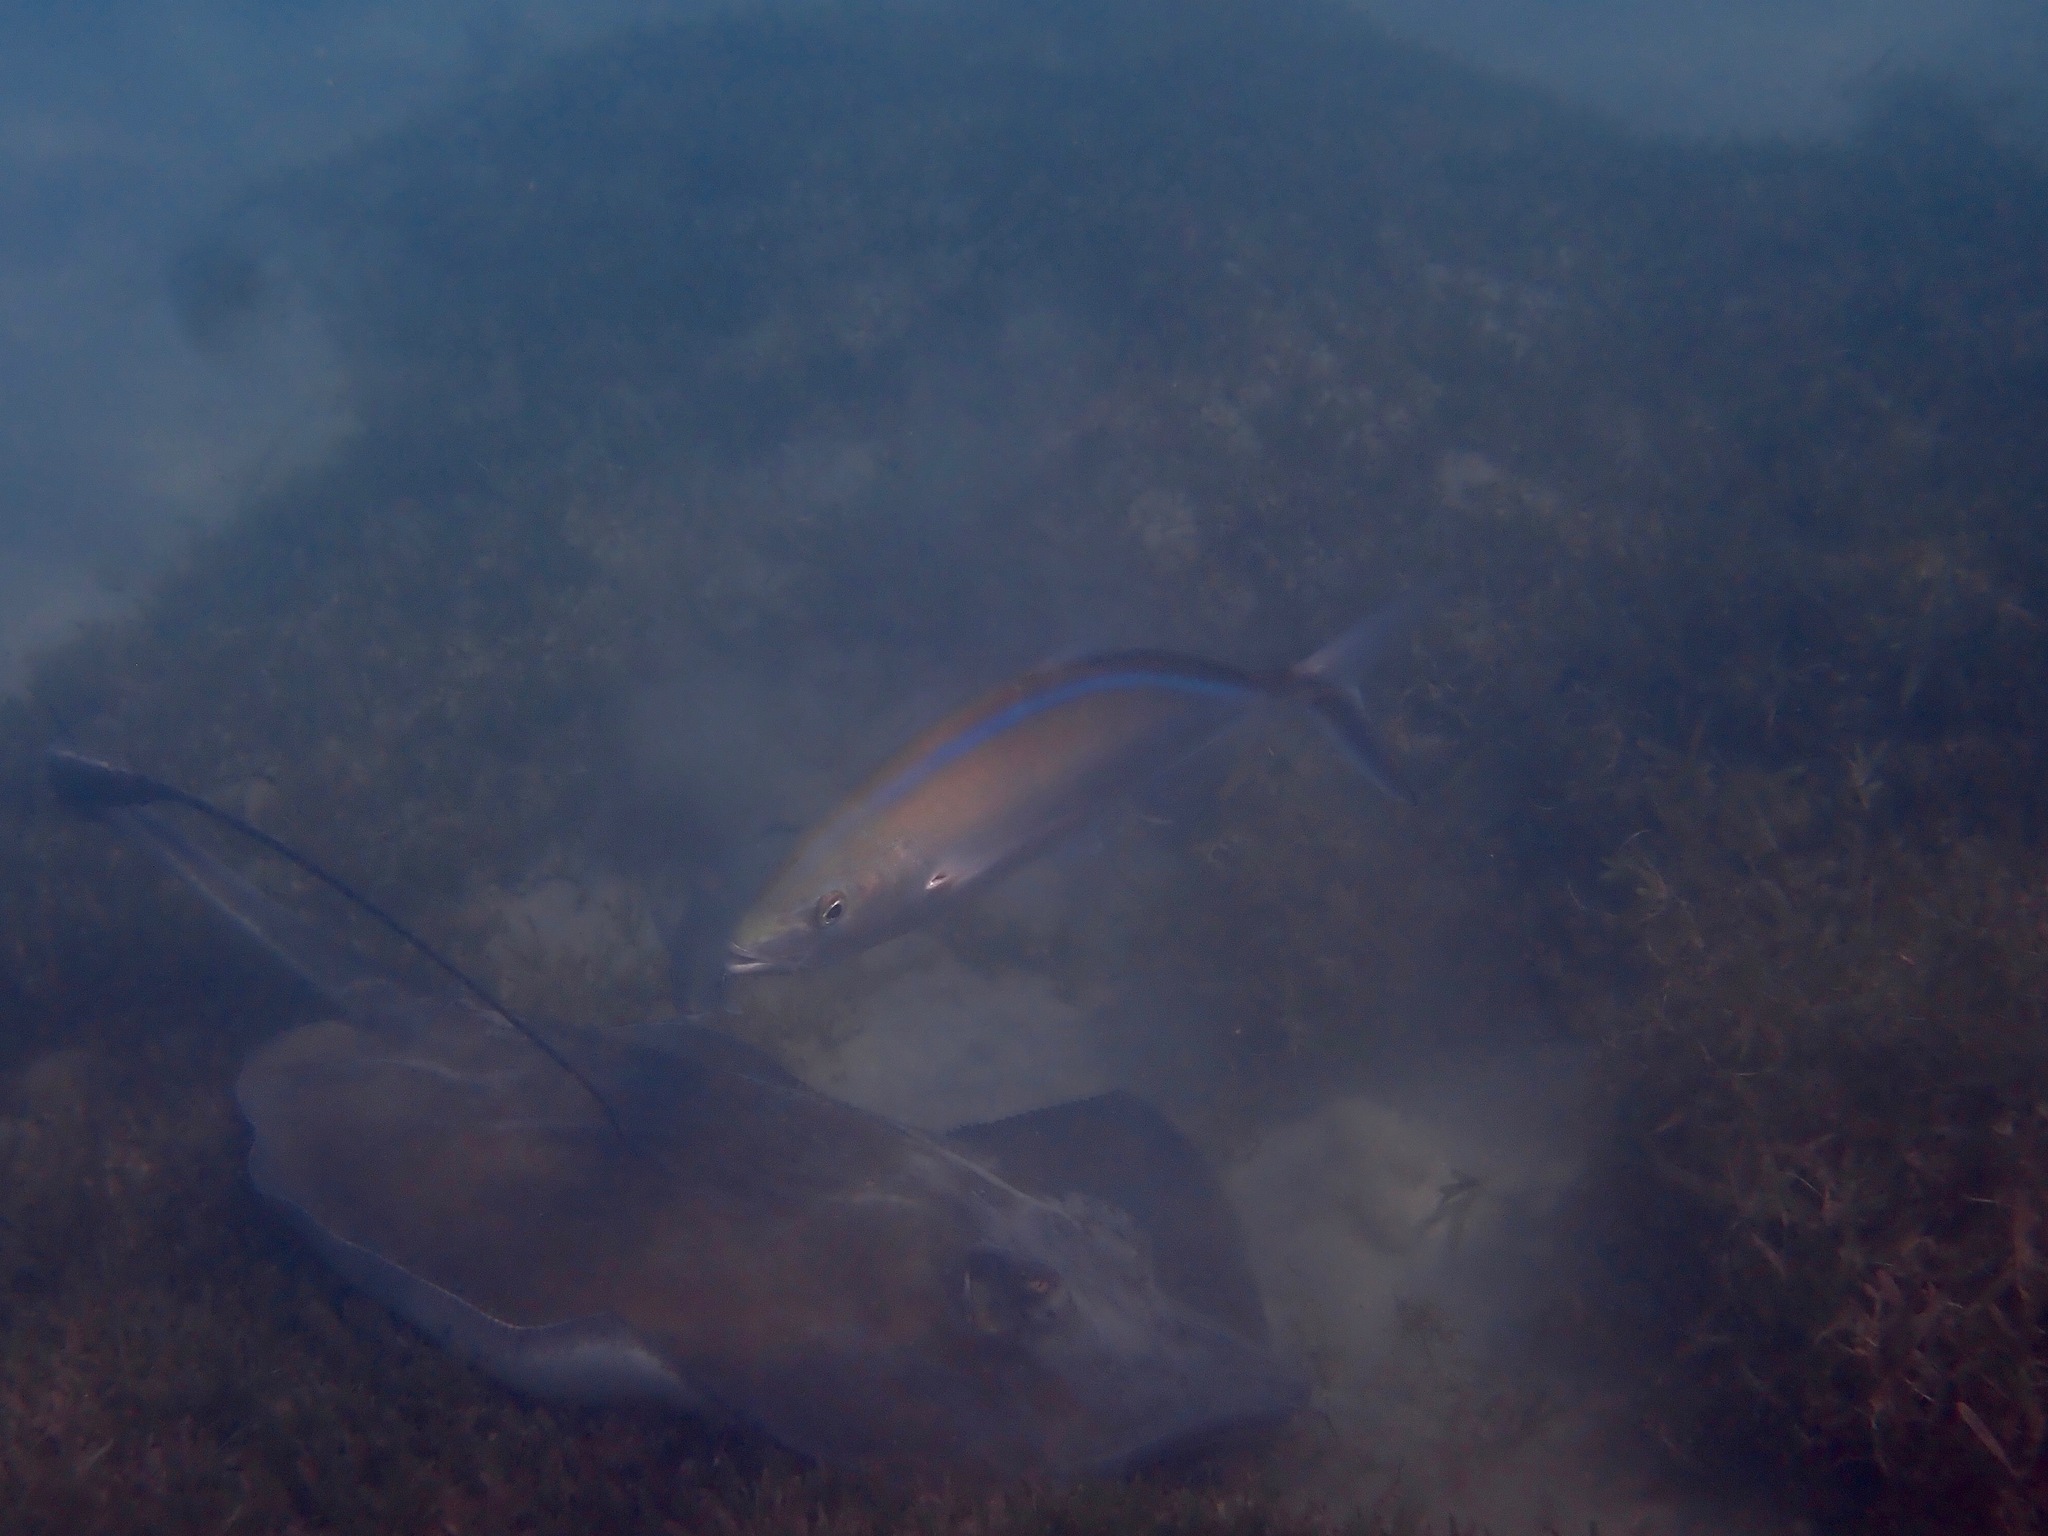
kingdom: Animalia
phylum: Chordata
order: Perciformes
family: Carangidae
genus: Caranx
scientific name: Caranx ruber
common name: Bar jack
